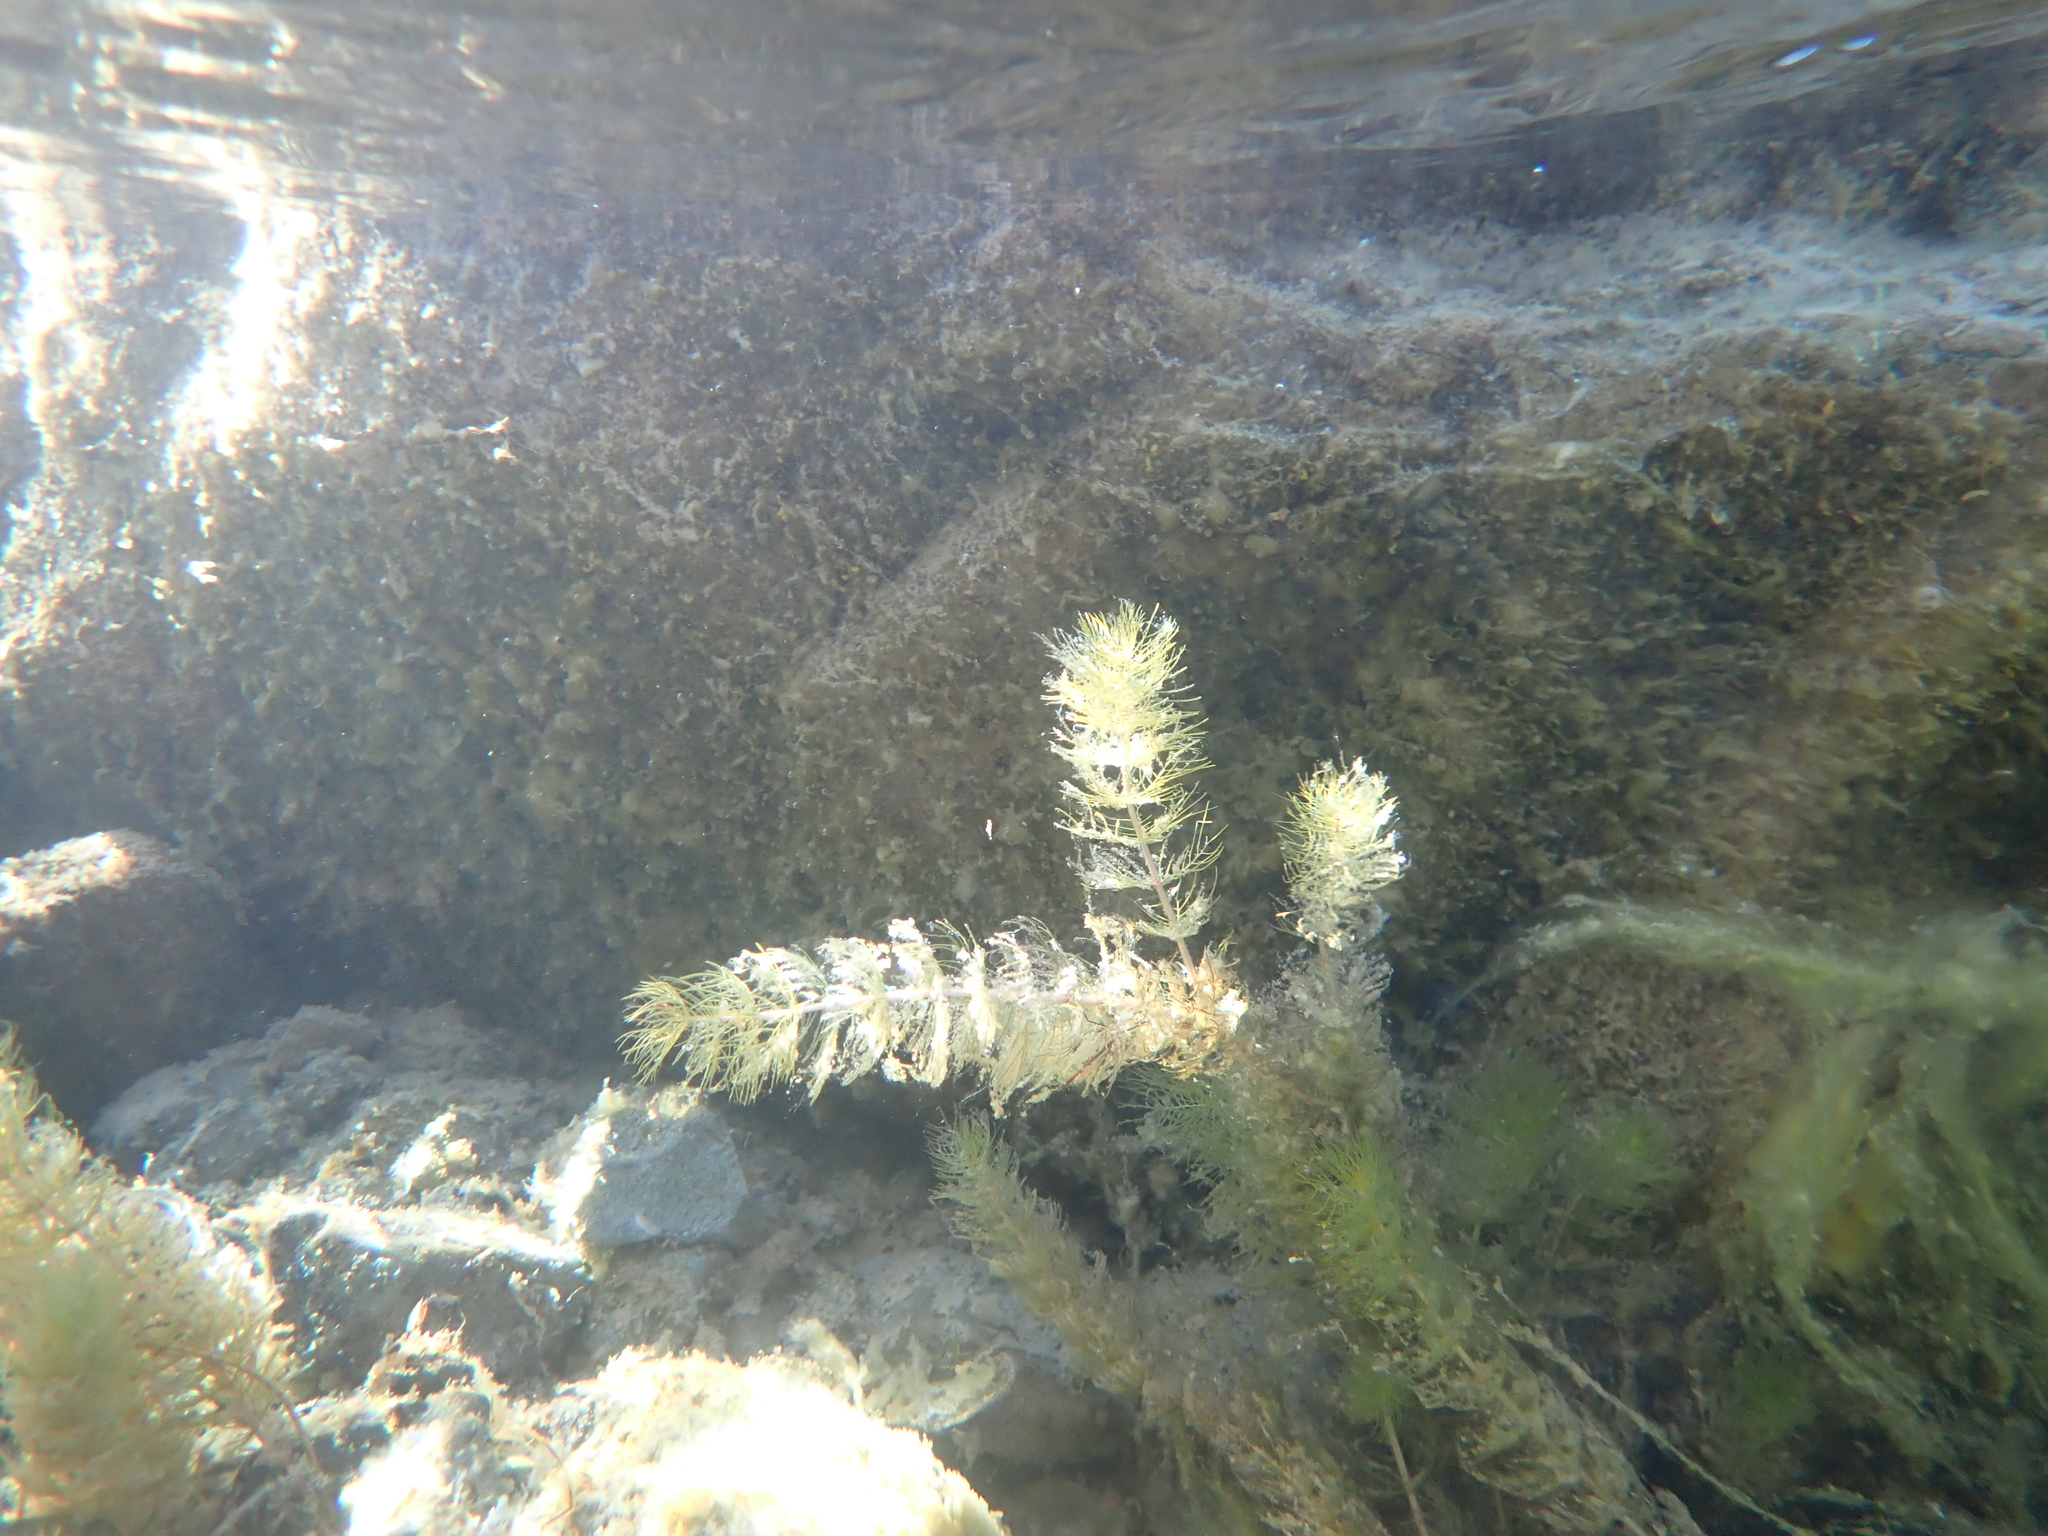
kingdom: Plantae
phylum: Tracheophyta
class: Magnoliopsida
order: Saxifragales
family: Haloragaceae
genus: Myriophyllum
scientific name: Myriophyllum propinquum
